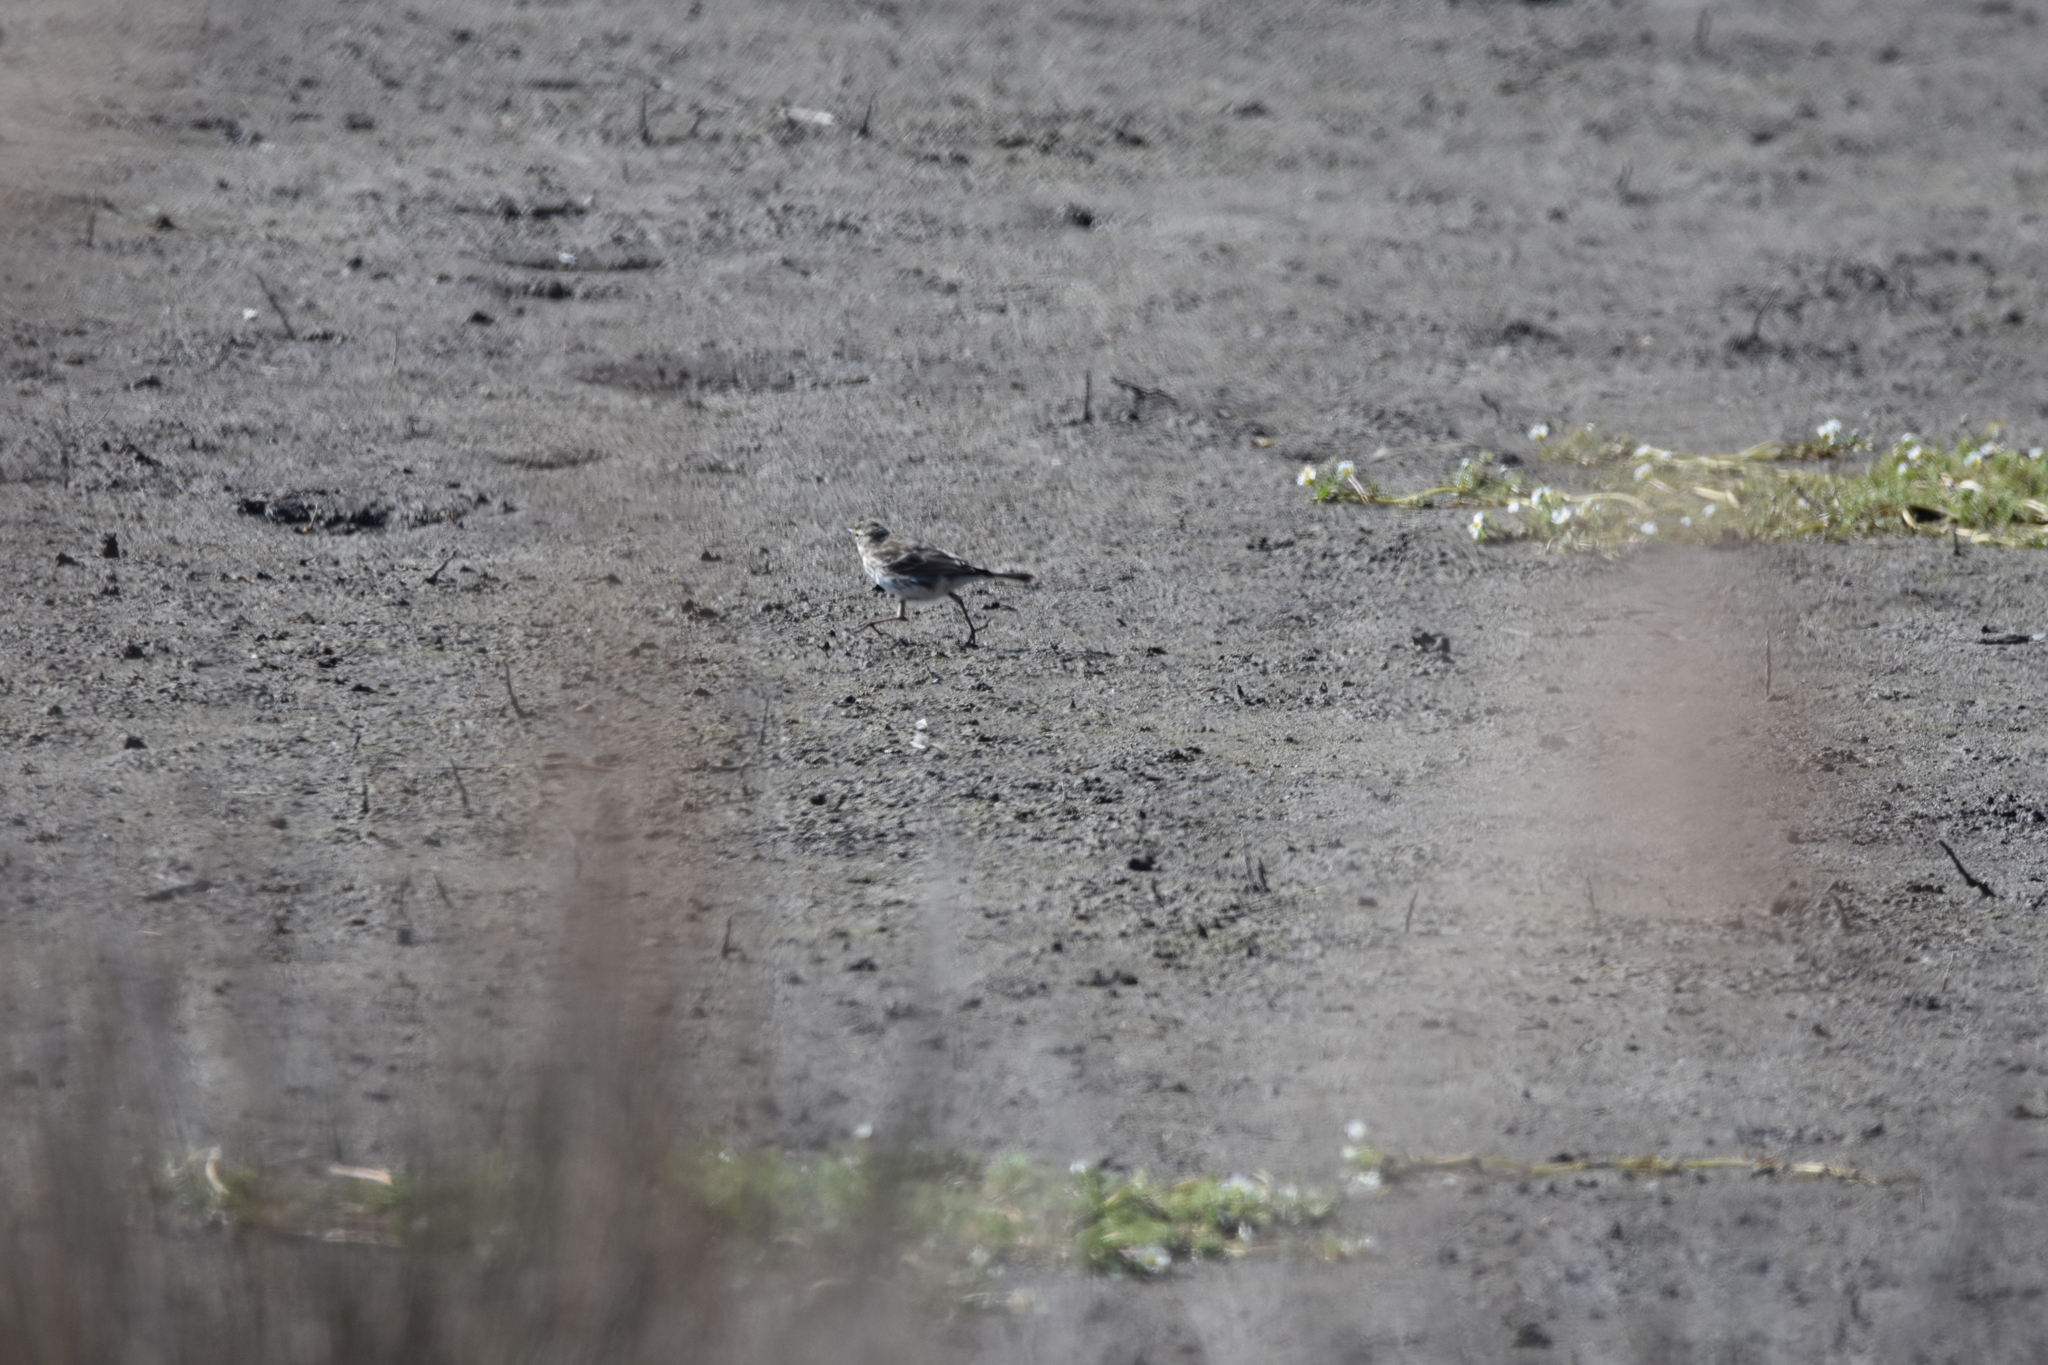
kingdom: Animalia
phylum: Chordata
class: Aves
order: Passeriformes
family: Motacillidae
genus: Anthus
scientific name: Anthus spinoletta
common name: Water pipit
